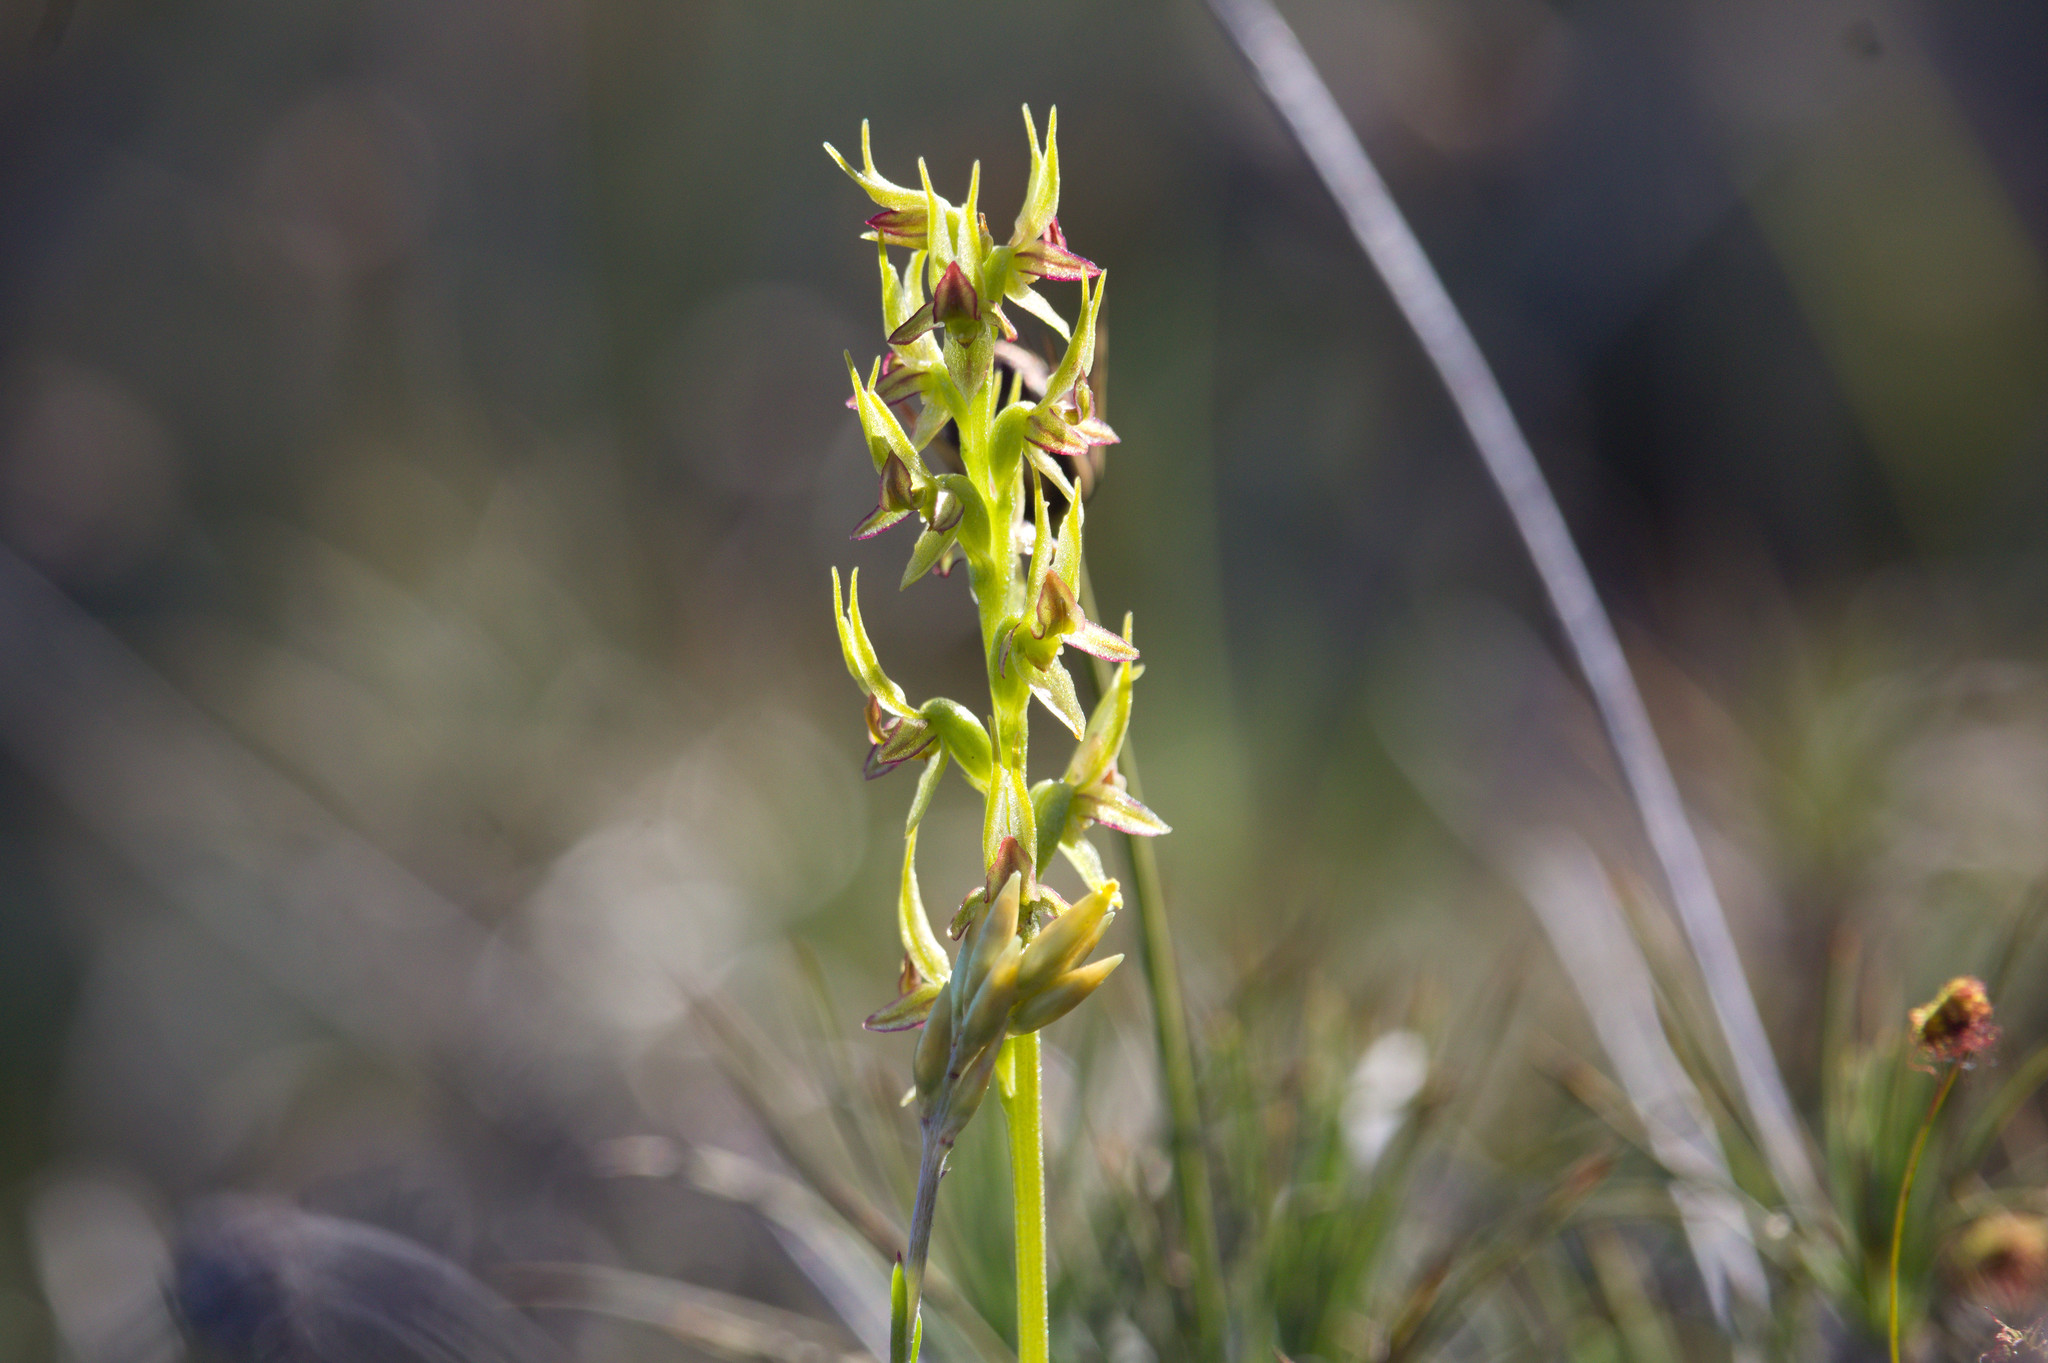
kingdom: Plantae
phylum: Tracheophyta
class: Liliopsida
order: Asparagales
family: Orchidaceae
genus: Prasophyllum
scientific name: Prasophyllum gracile
